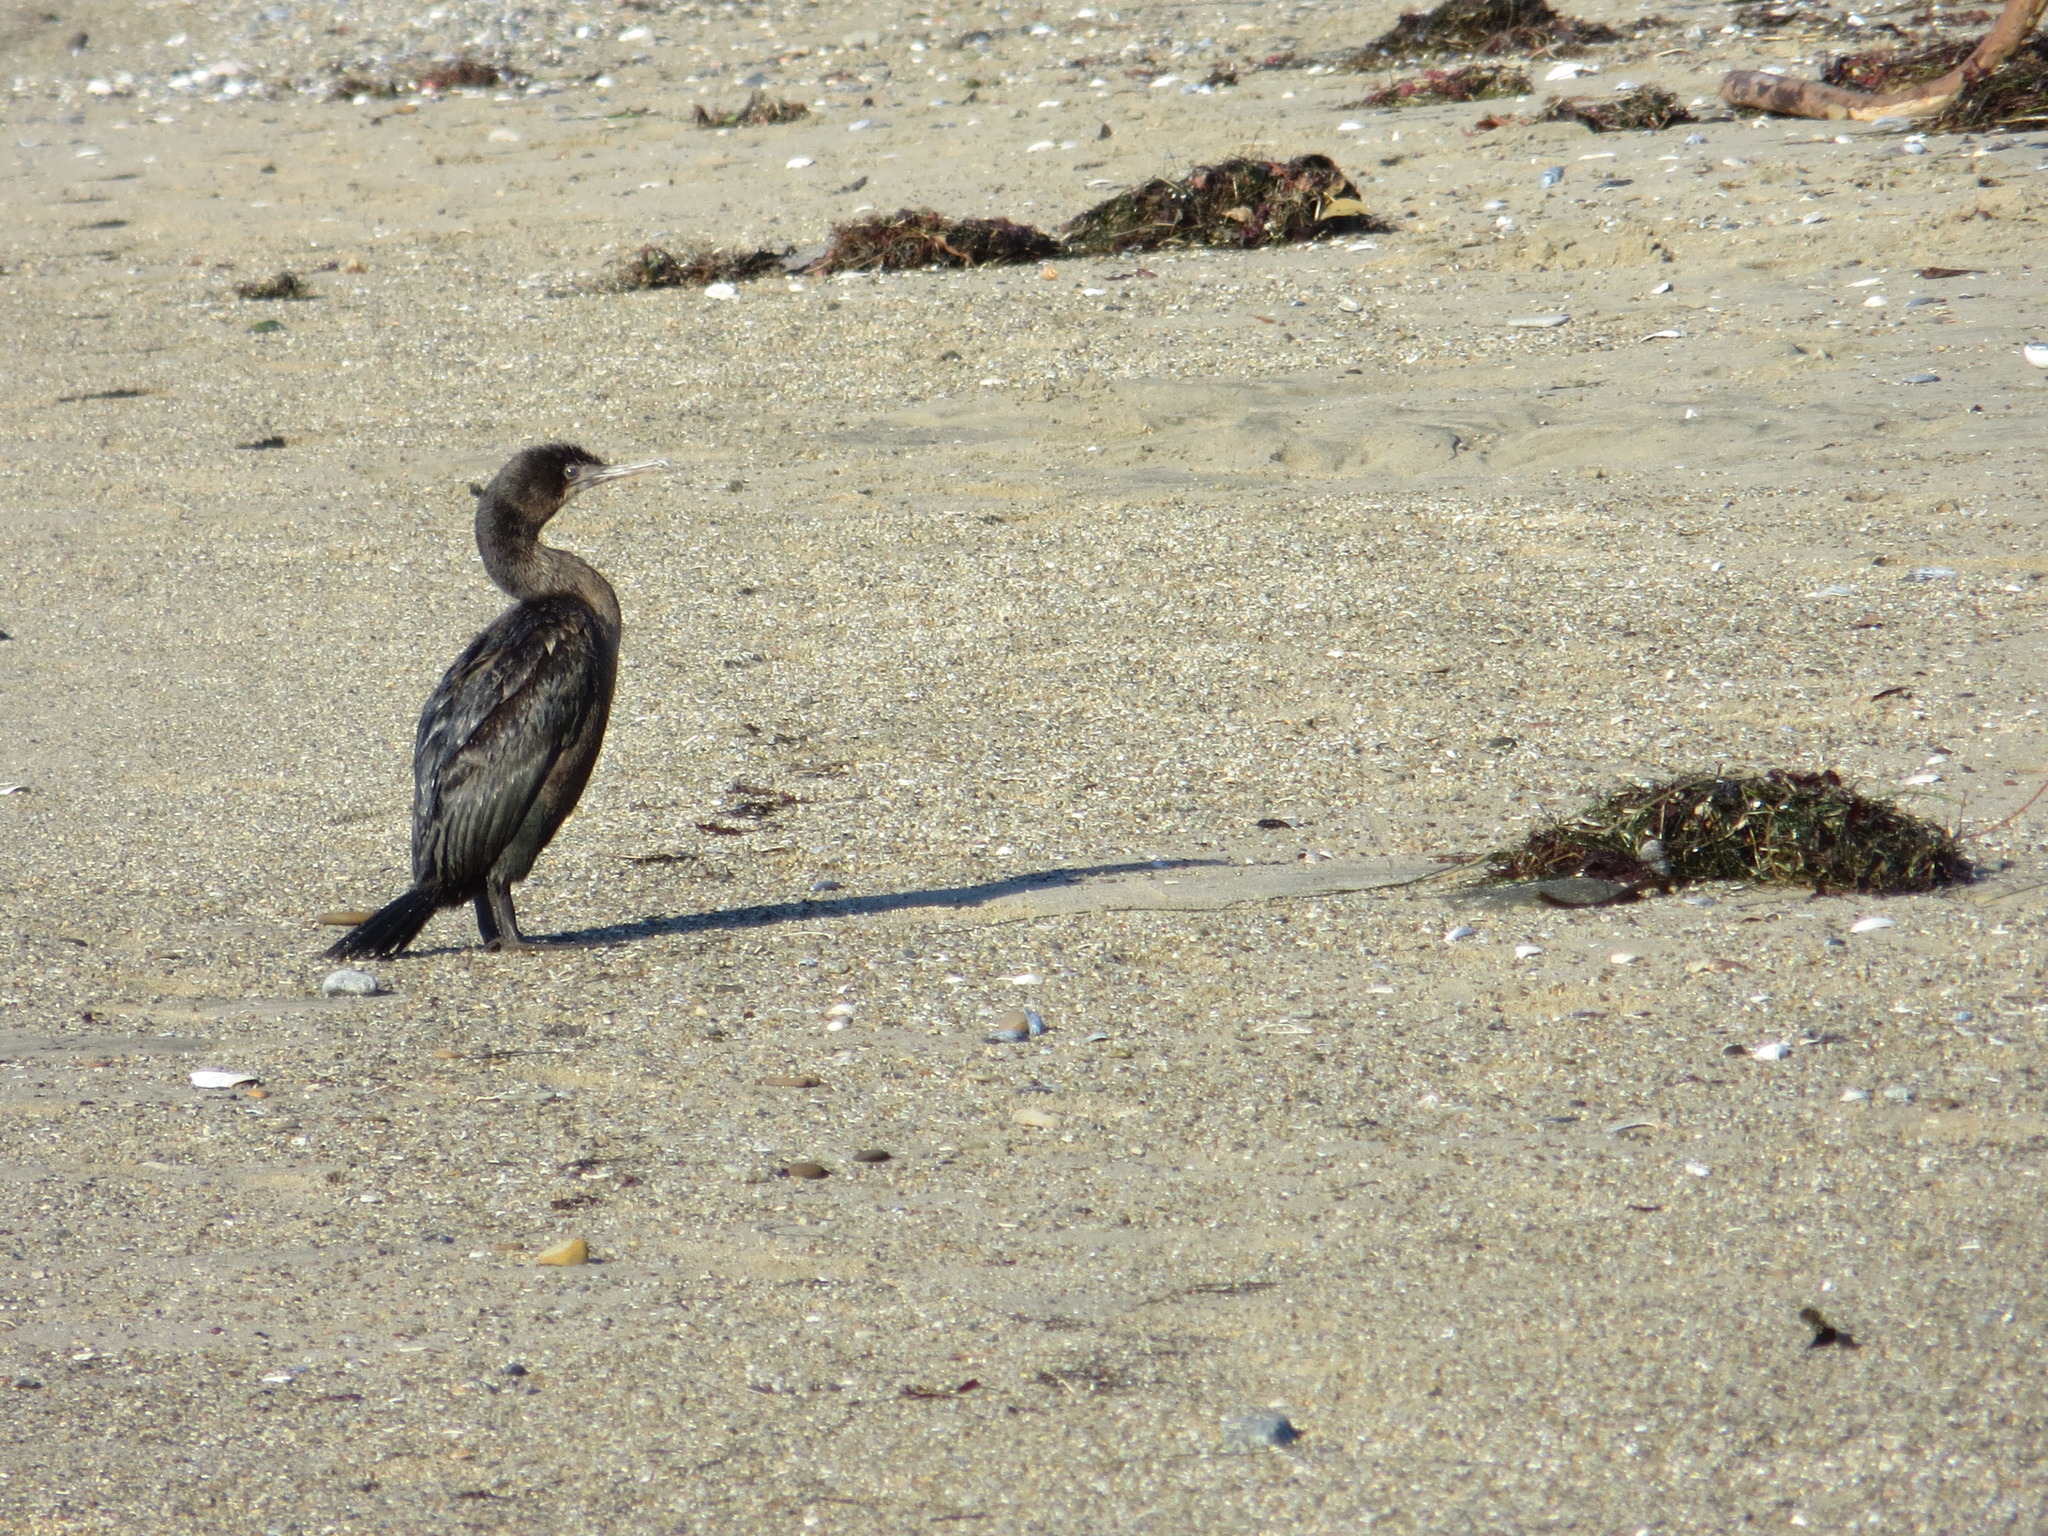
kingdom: Animalia
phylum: Chordata
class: Aves
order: Suliformes
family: Phalacrocoracidae
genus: Urile
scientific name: Urile penicillatus
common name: Brandt's cormorant
